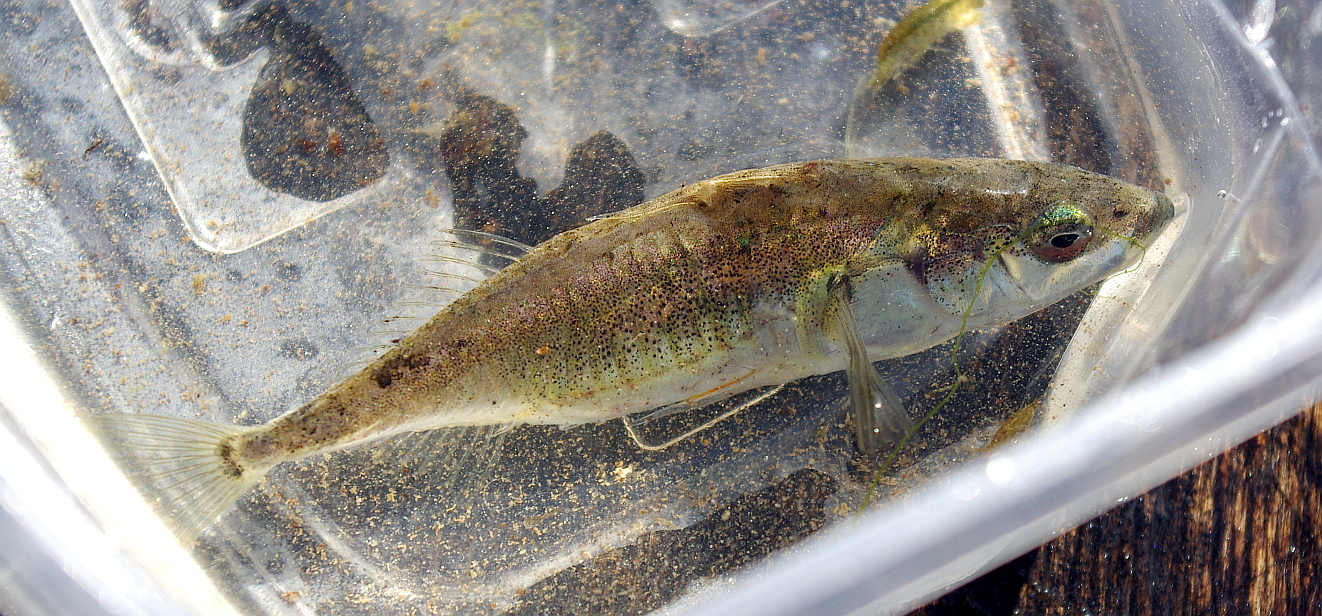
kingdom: Animalia
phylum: Chordata
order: Gasterosteiformes
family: Gasterosteidae
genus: Gasterosteus
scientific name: Gasterosteus aculeatus
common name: Three-spined stickleback
